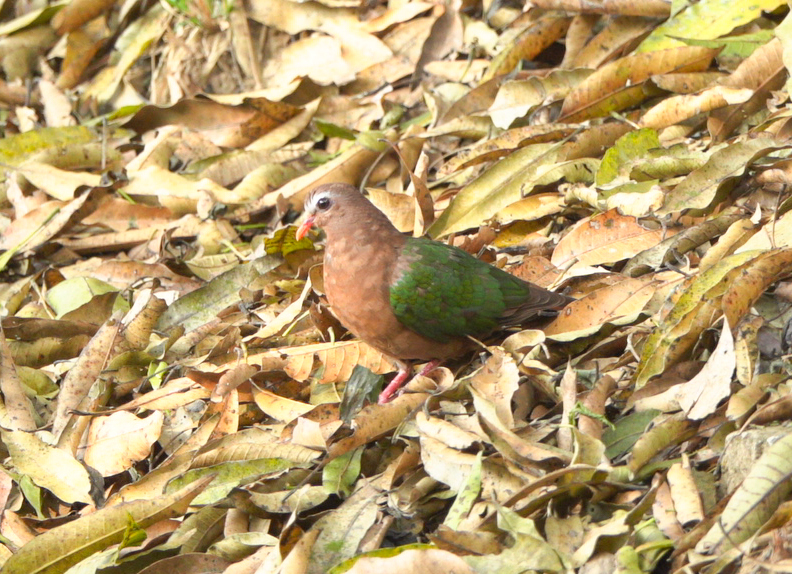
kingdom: Animalia
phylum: Chordata
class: Aves
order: Columbiformes
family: Columbidae
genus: Chalcophaps
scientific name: Chalcophaps indica
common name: Common emerald dove
